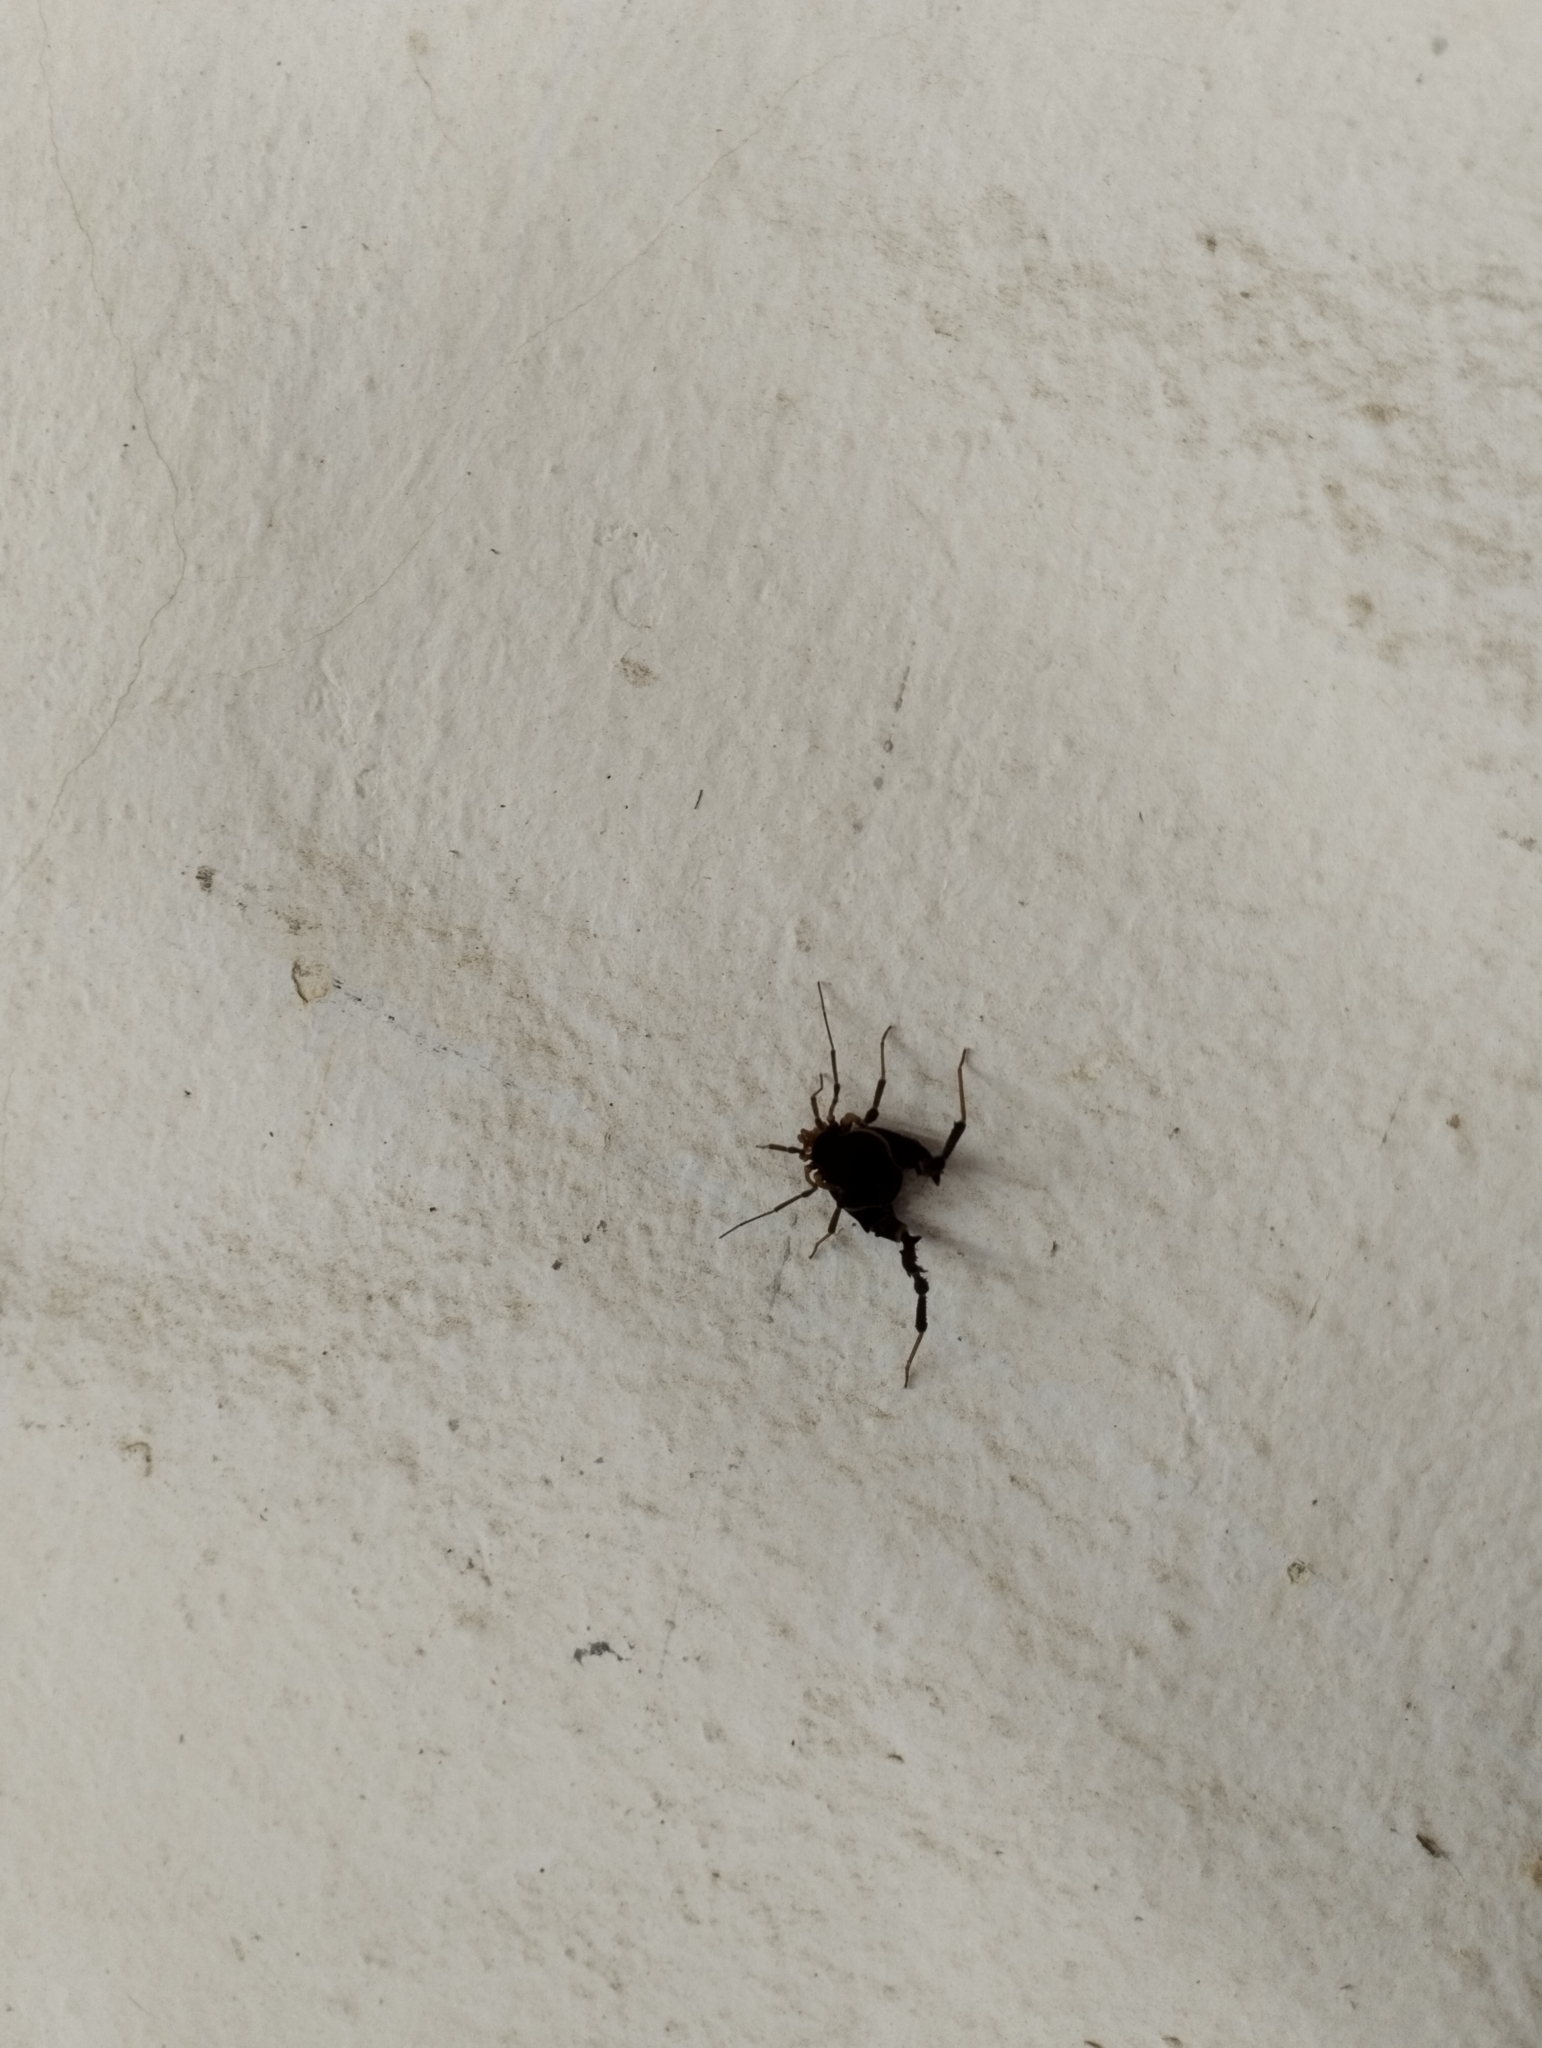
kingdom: Animalia
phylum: Arthropoda
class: Arachnida
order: Opiliones
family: Gonyleptidae
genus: Acanthopachylus
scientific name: Acanthopachylus aculeatus
